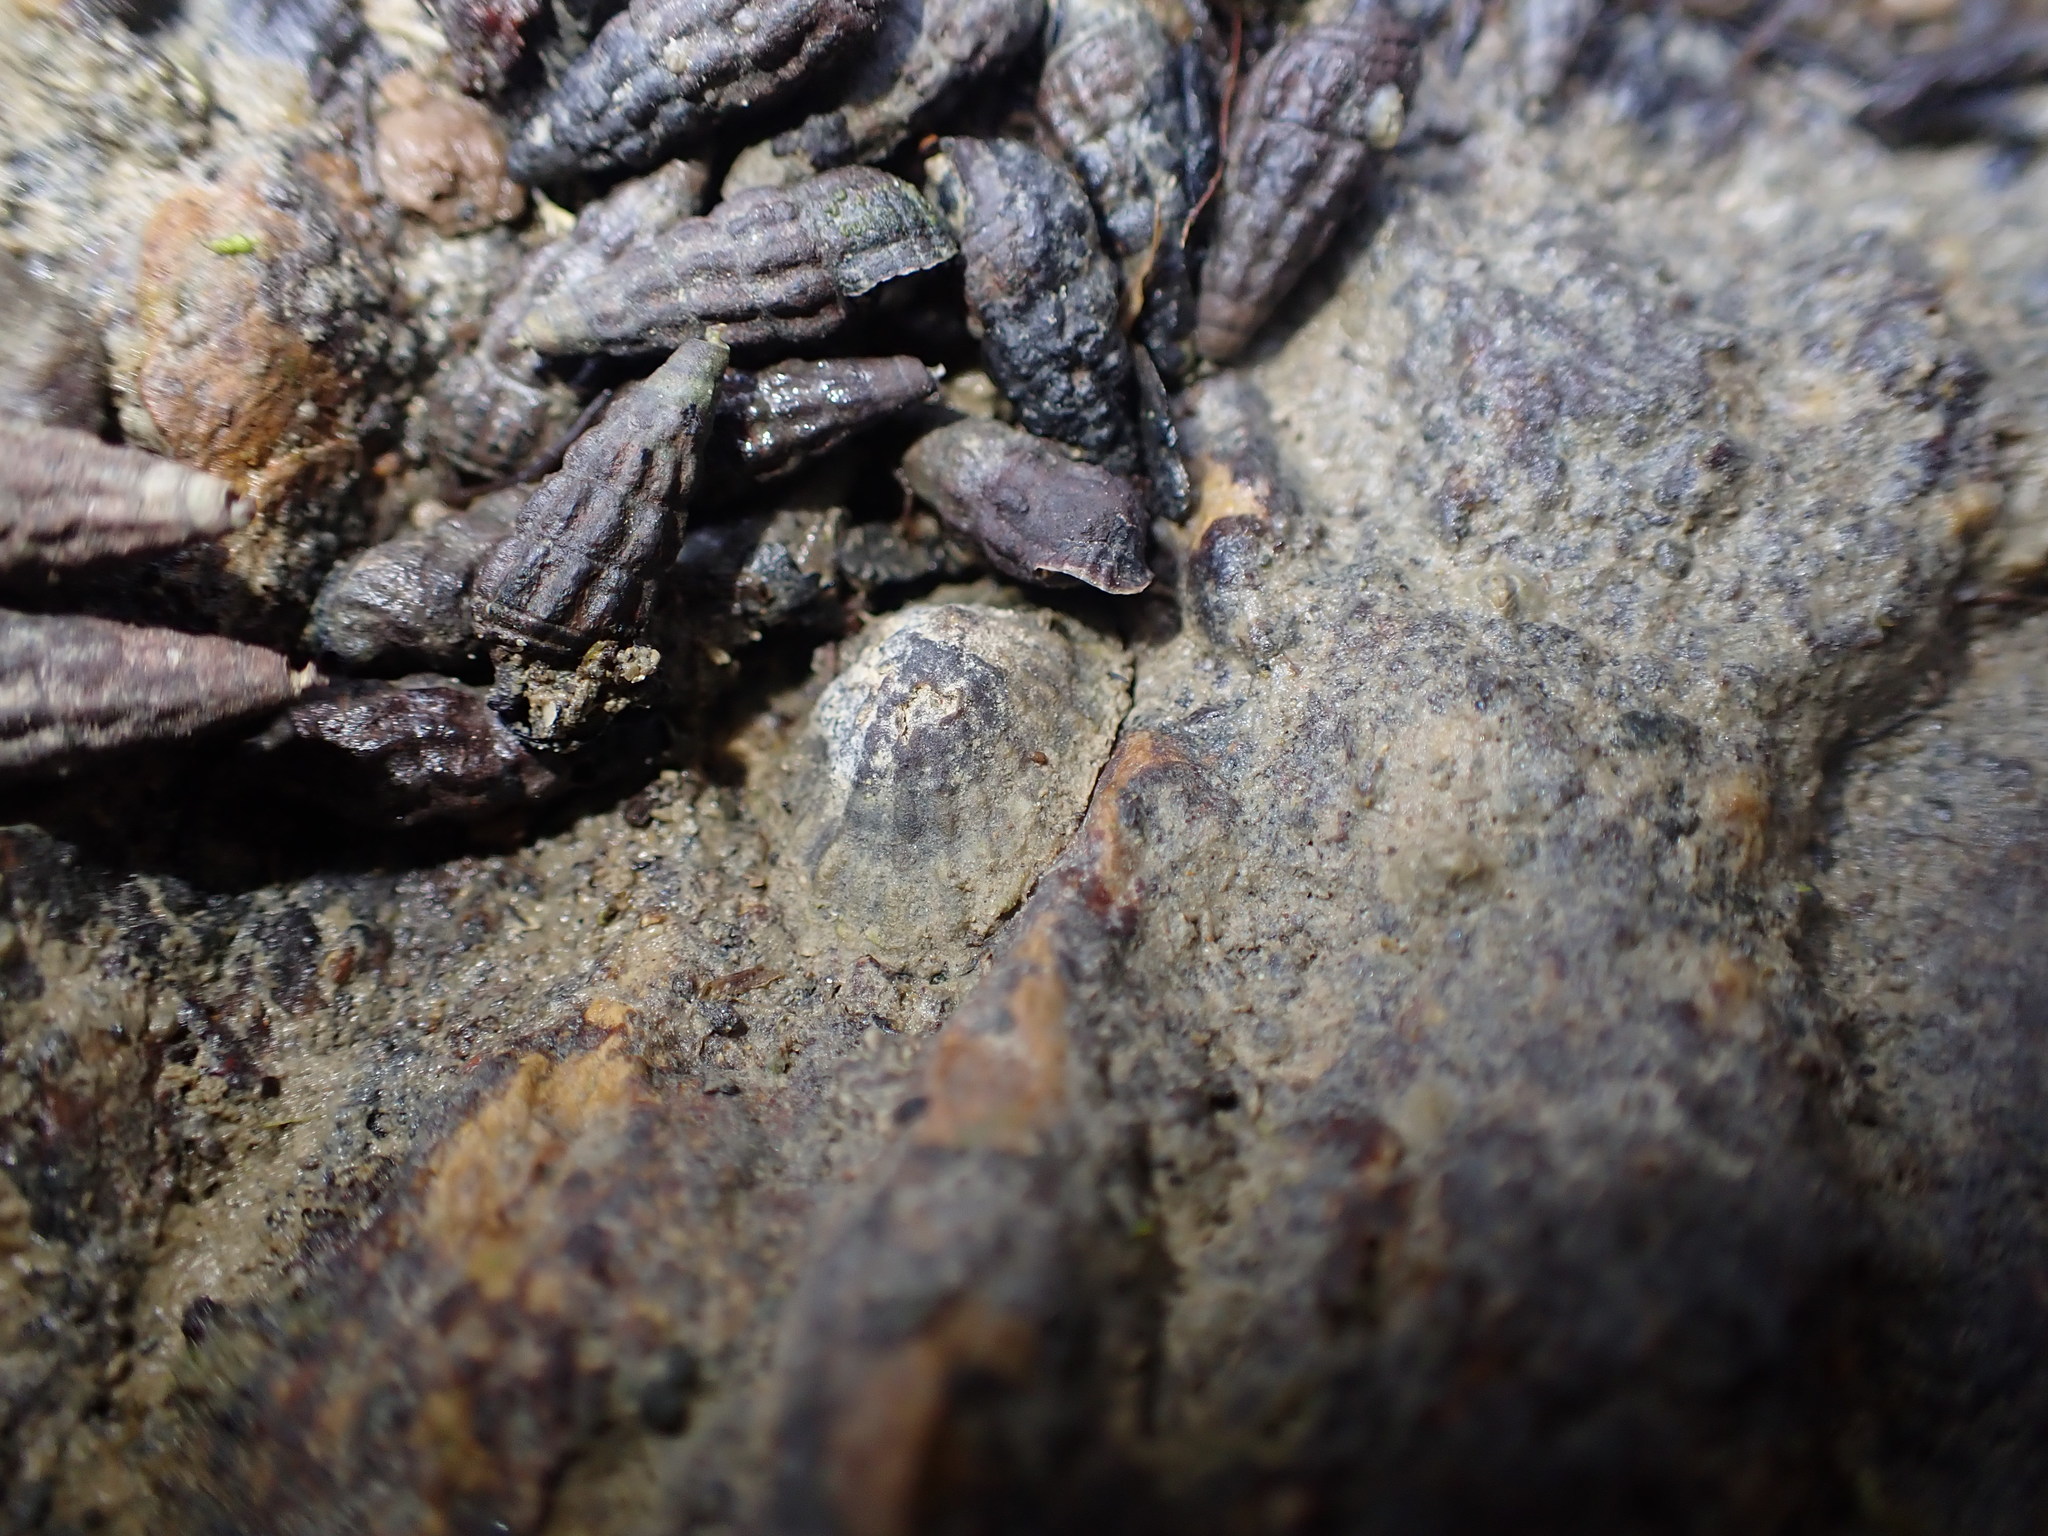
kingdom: Animalia
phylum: Mollusca
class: Gastropoda
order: Siphonariida
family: Siphonariidae
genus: Siphonaria
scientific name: Siphonaria australis
